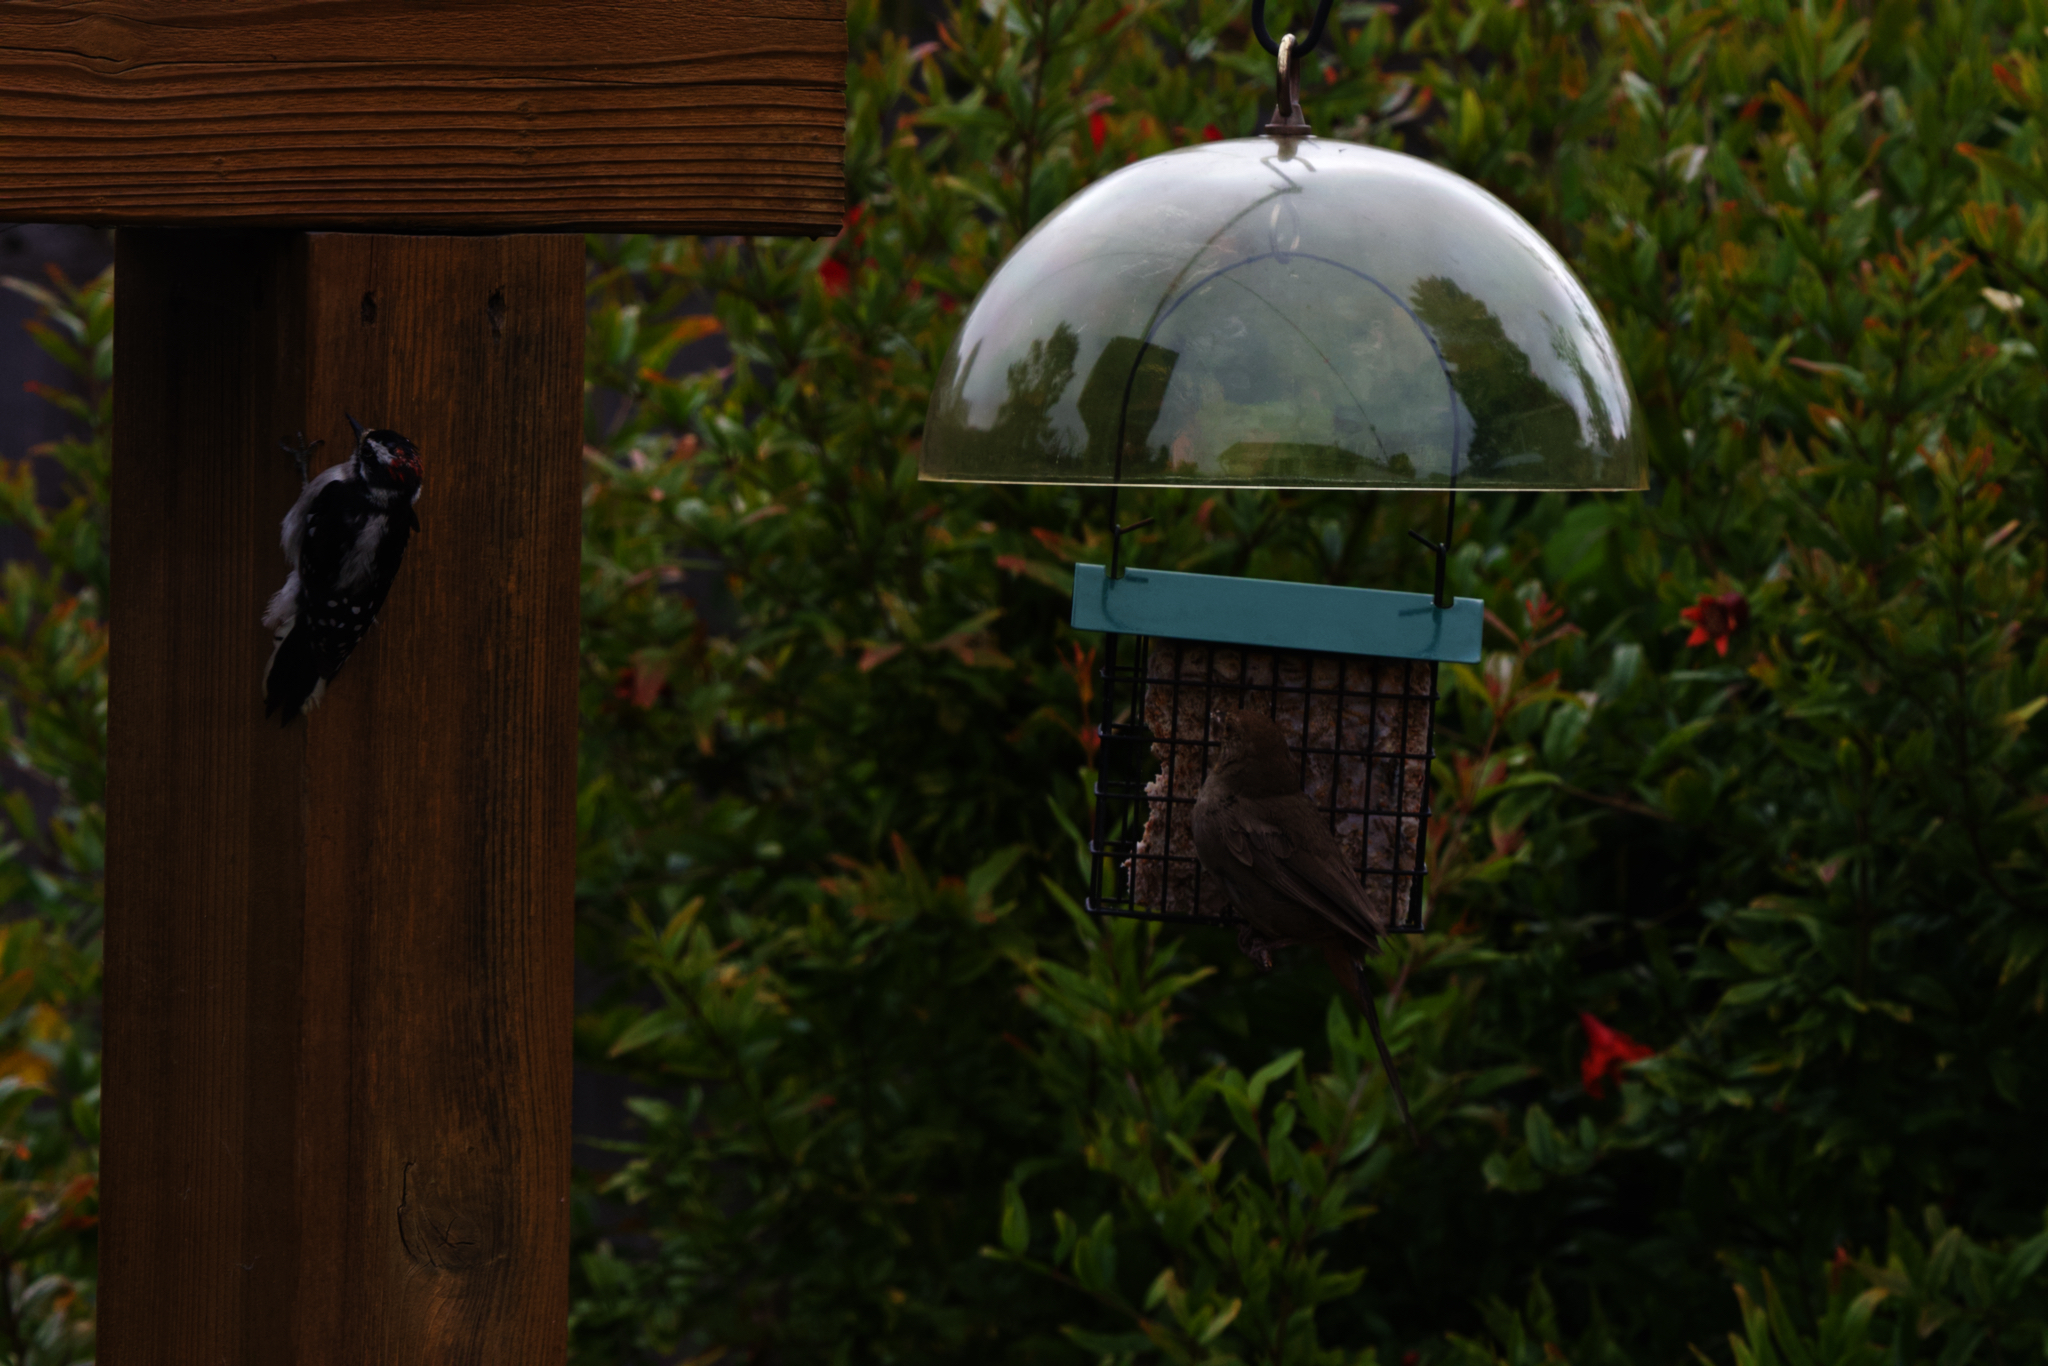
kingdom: Animalia
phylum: Chordata
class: Aves
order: Passeriformes
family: Passerellidae
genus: Melozone
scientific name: Melozone crissalis
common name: California towhee
